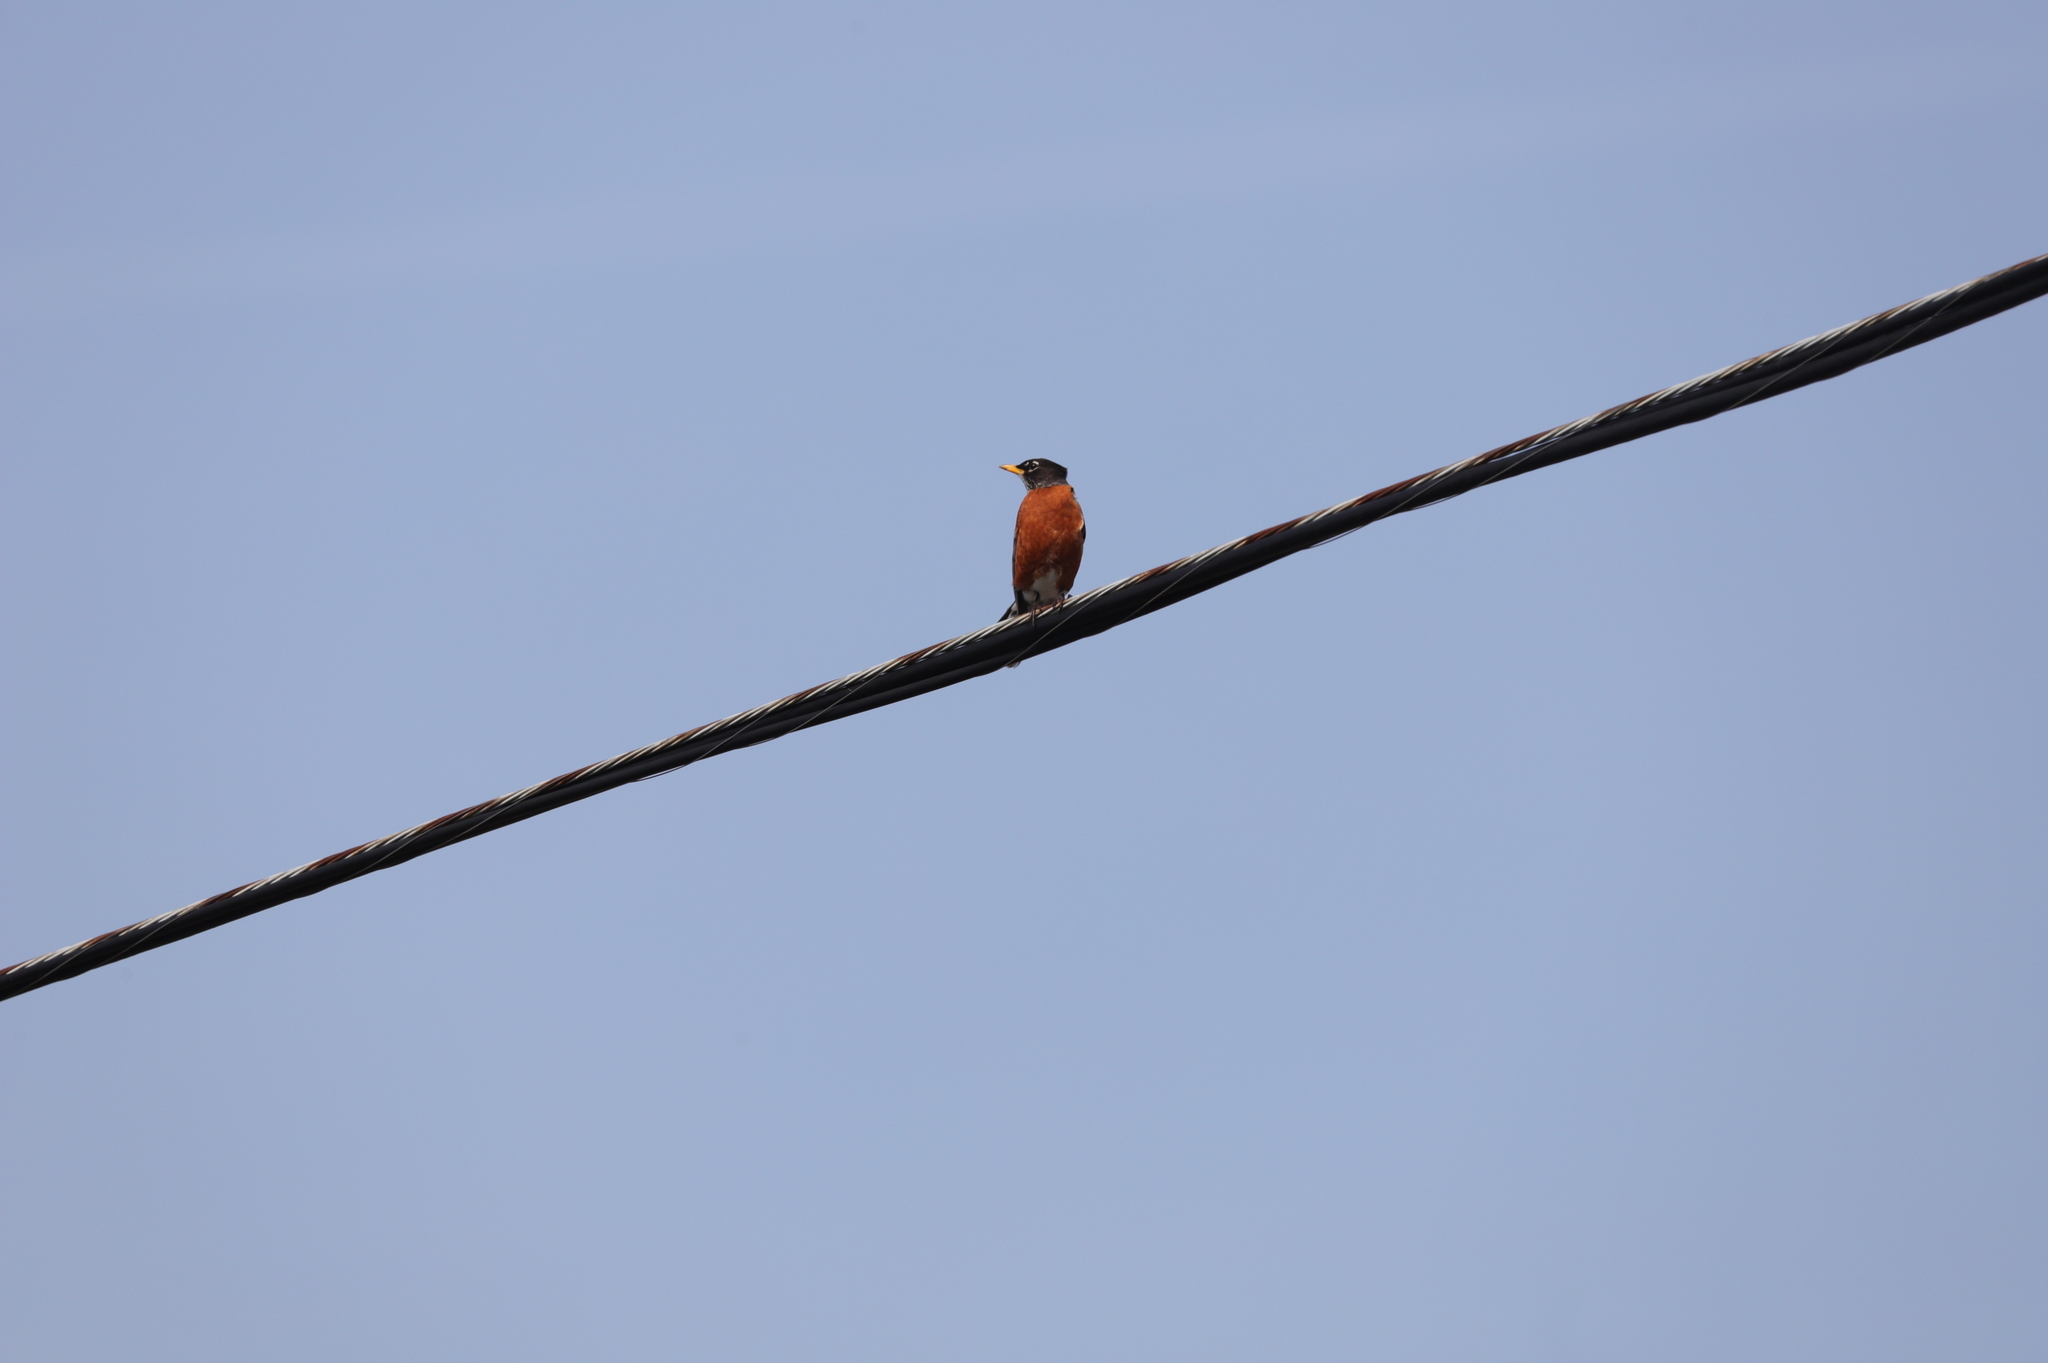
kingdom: Animalia
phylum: Chordata
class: Aves
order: Passeriformes
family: Turdidae
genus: Turdus
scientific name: Turdus migratorius
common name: American robin
